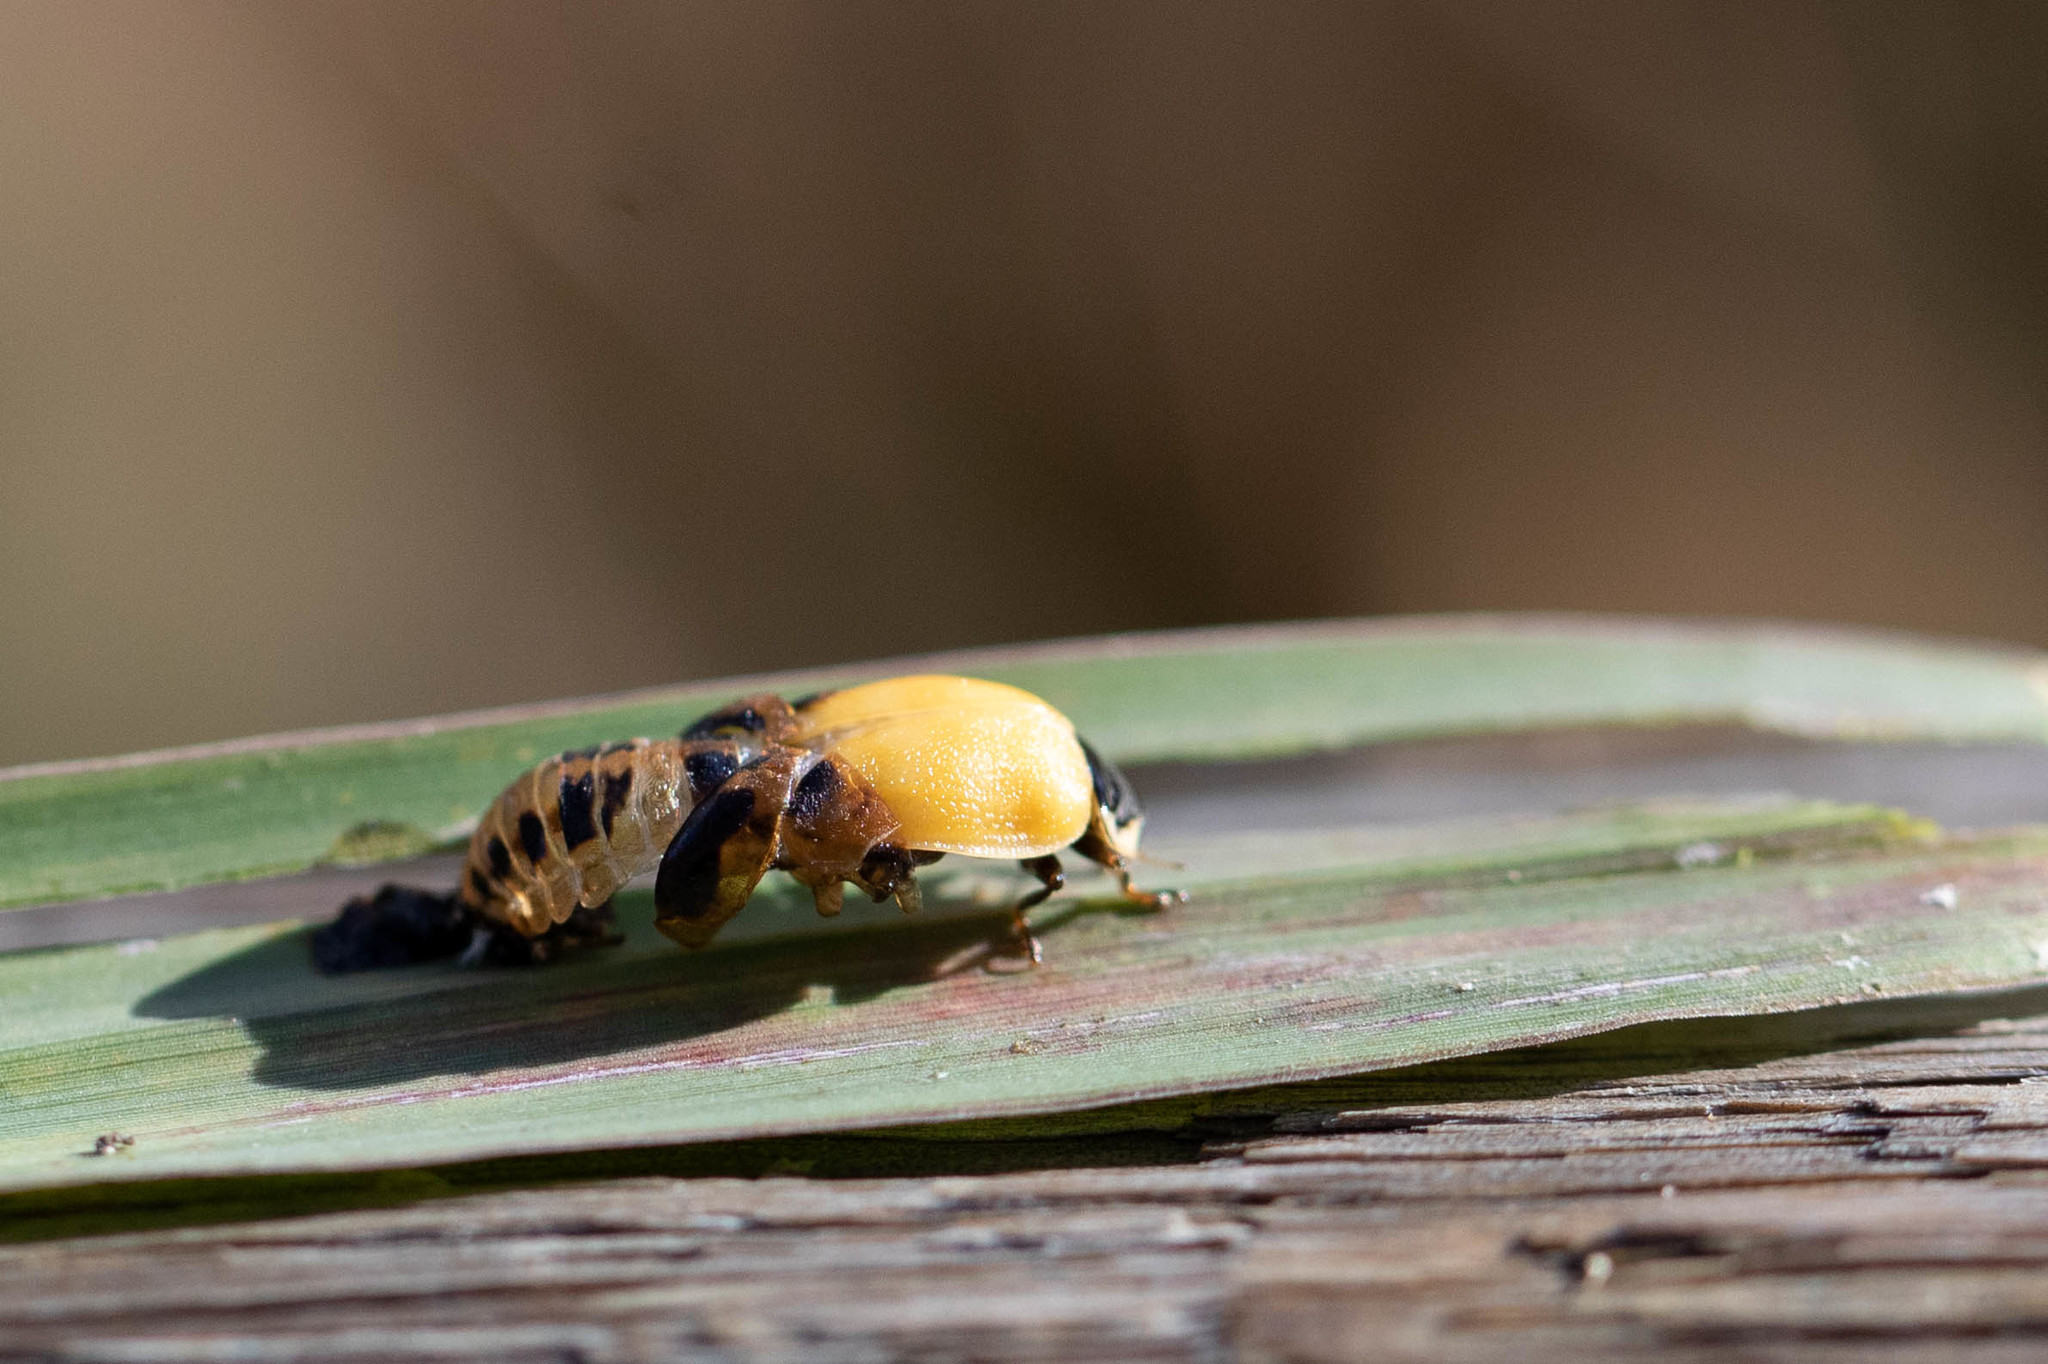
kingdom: Animalia
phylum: Arthropoda
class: Insecta
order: Coleoptera
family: Coccinellidae
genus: Harmonia
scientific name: Harmonia axyridis
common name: Harlequin ladybird
